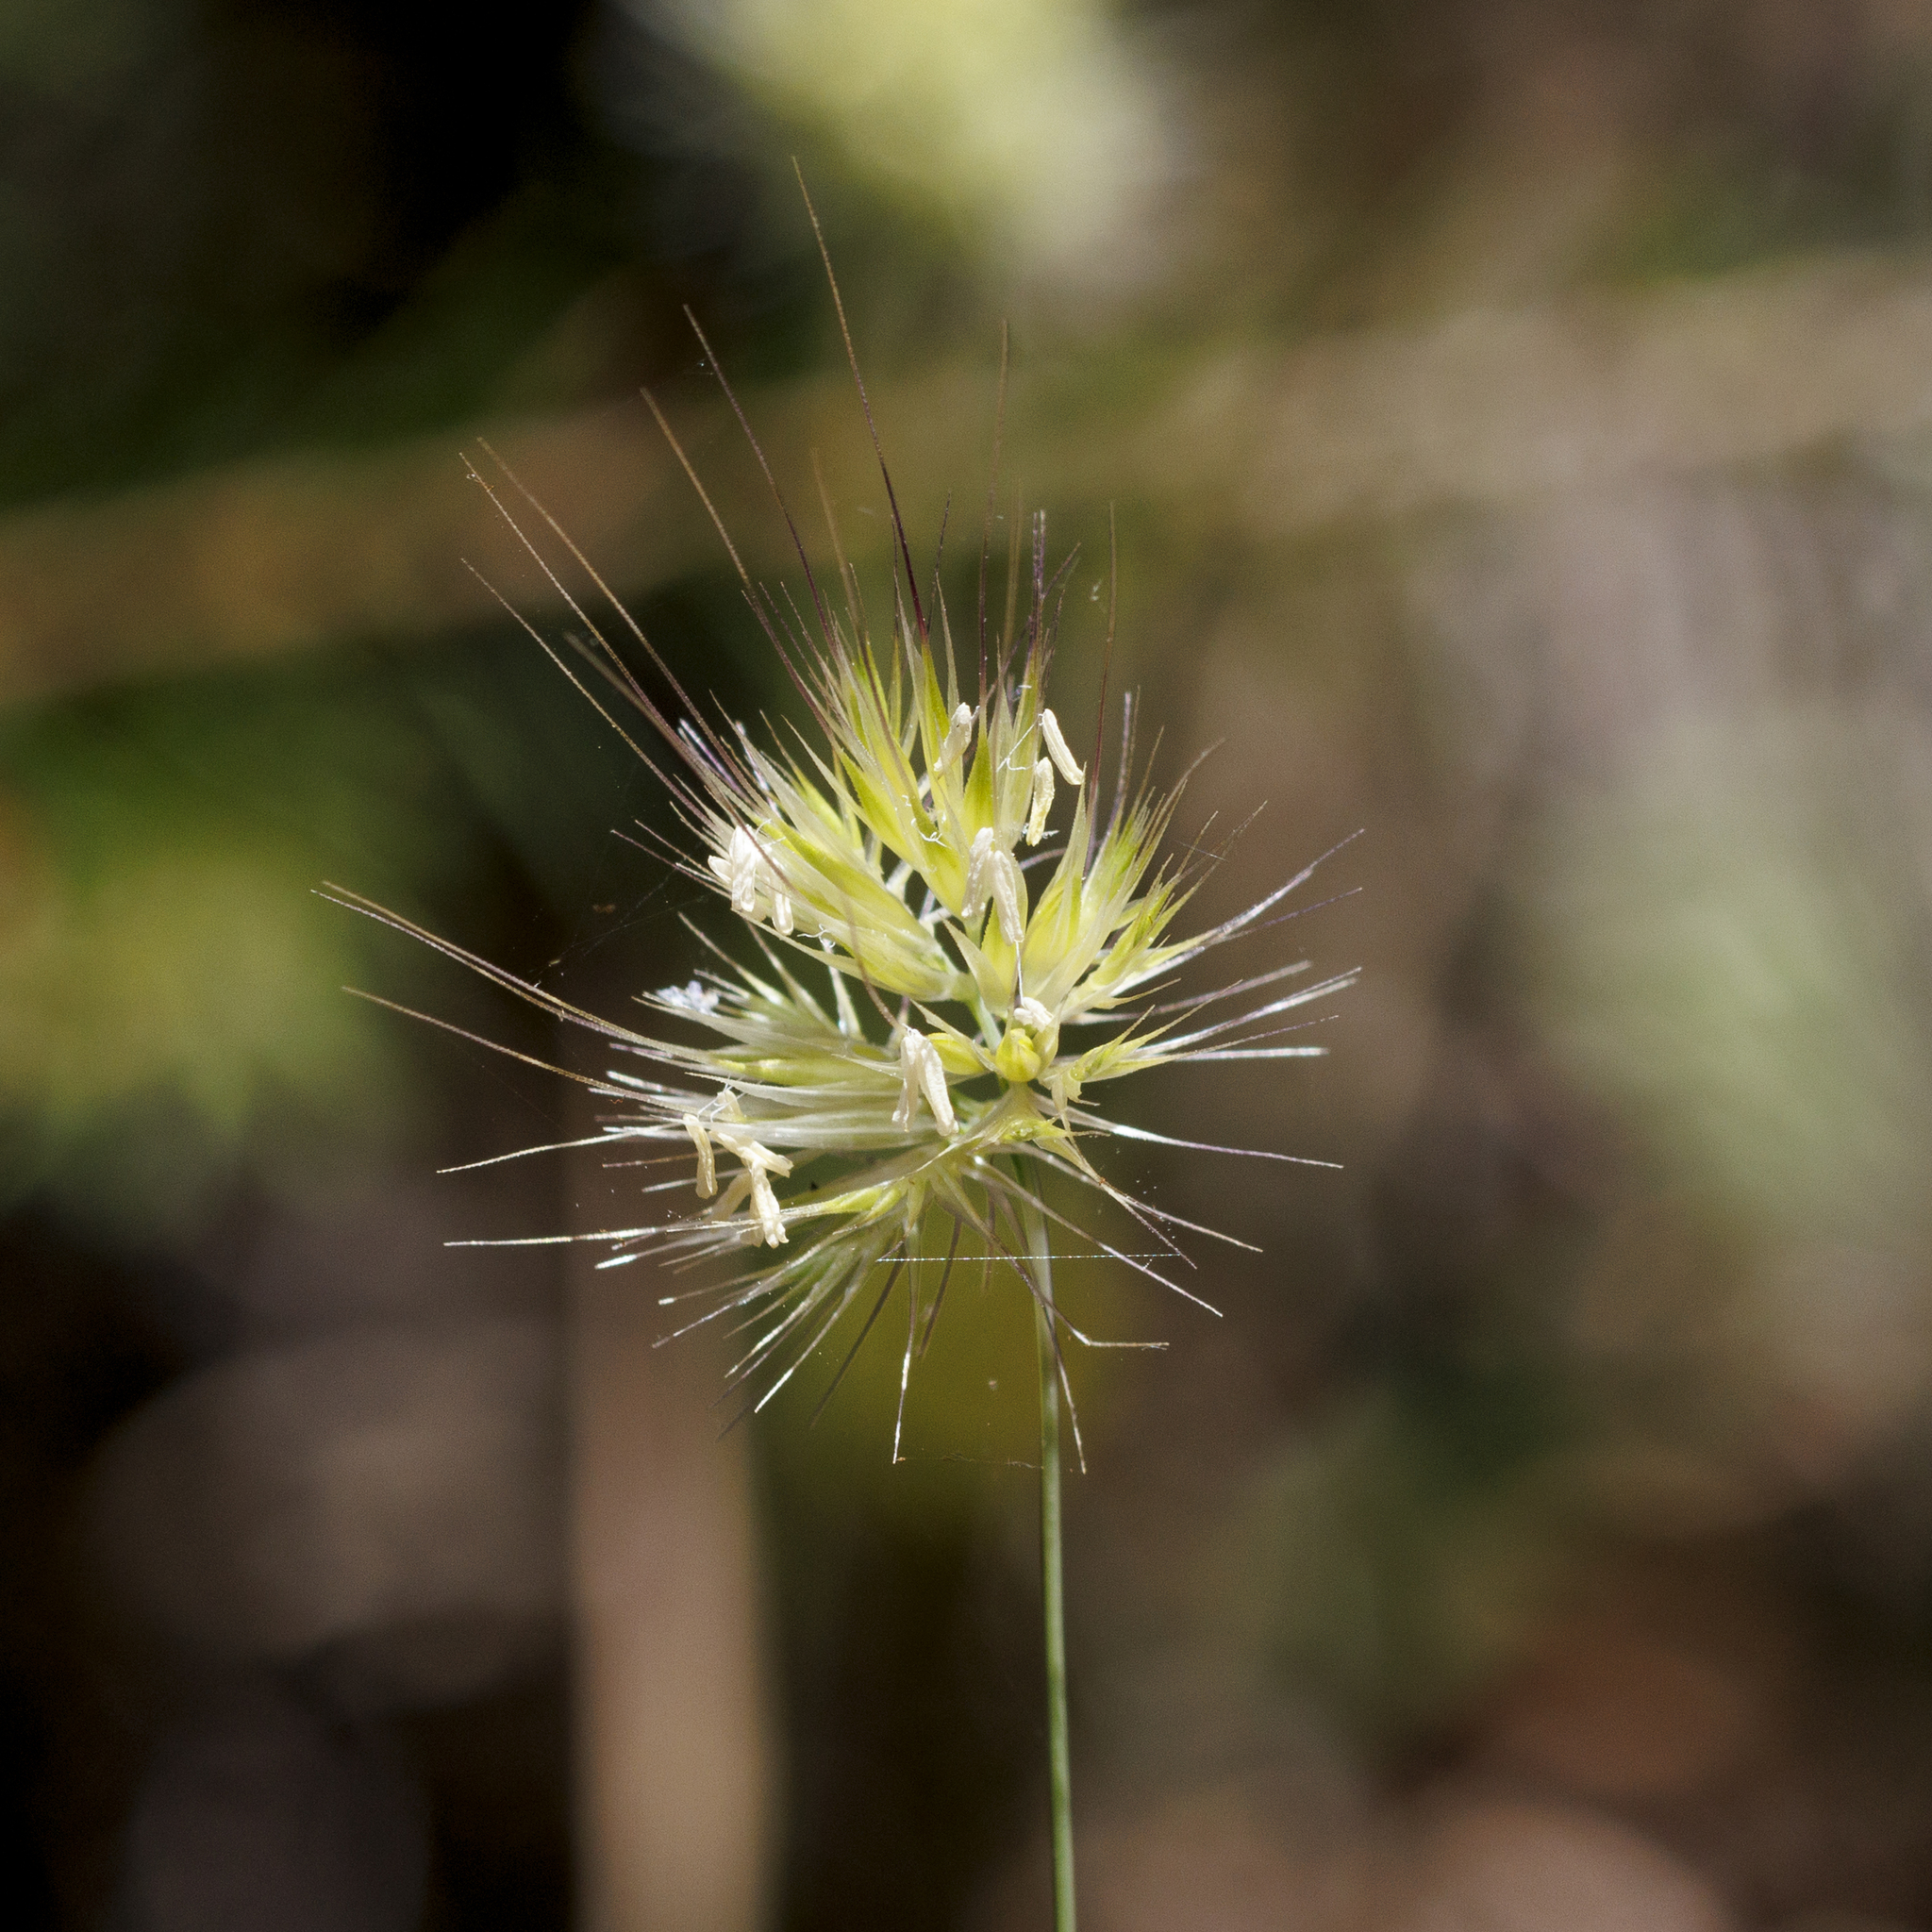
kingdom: Plantae
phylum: Tracheophyta
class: Liliopsida
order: Poales
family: Poaceae
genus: Cynosurus
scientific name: Cynosurus echinatus
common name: Rough dog's-tail
